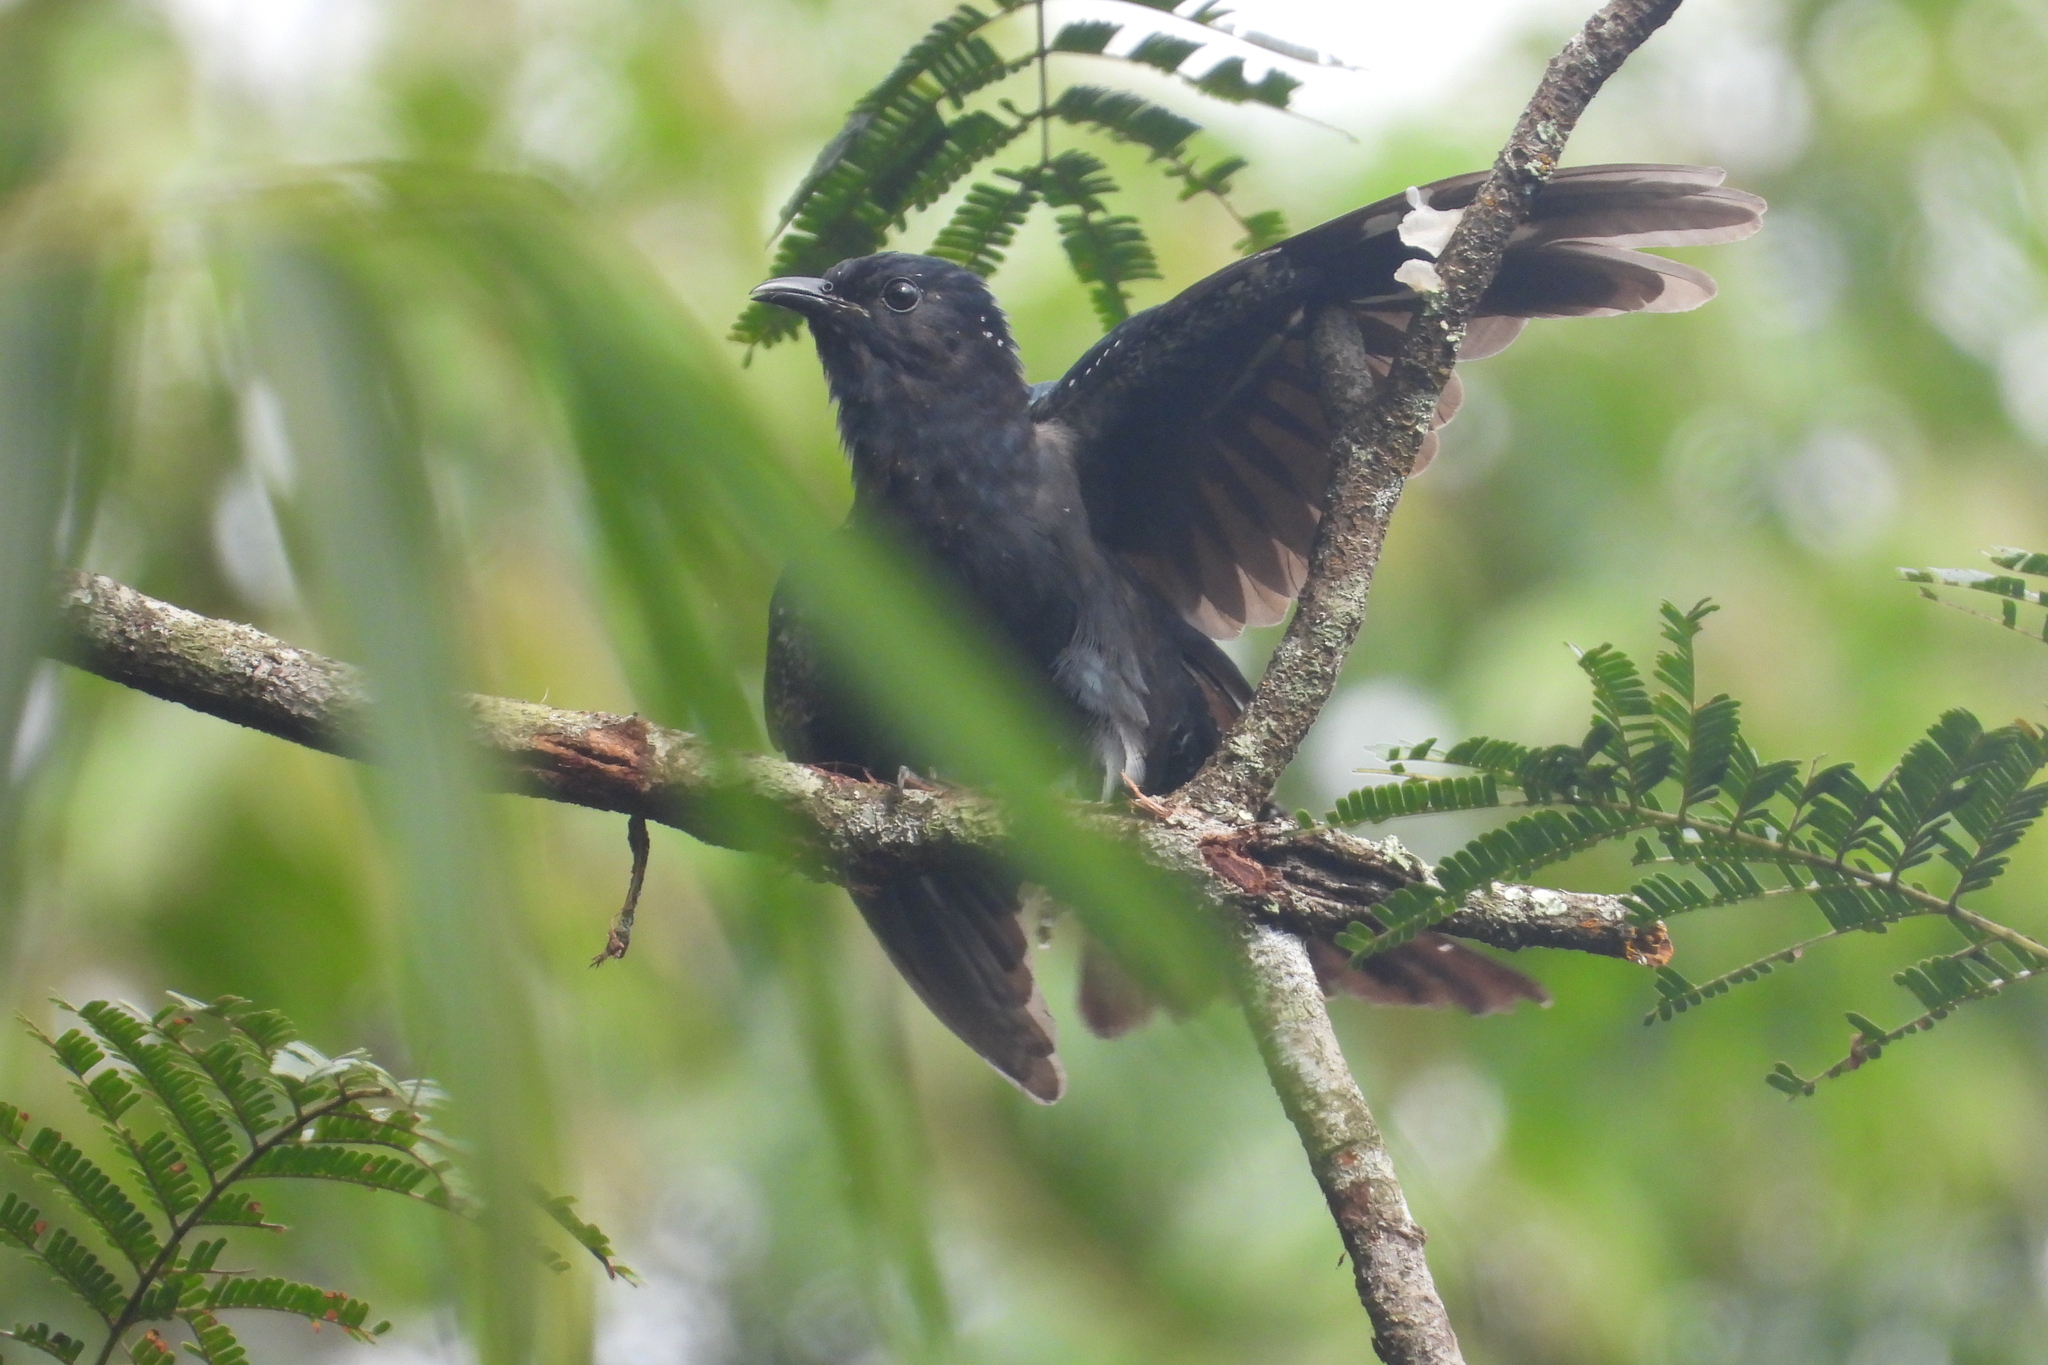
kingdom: Animalia
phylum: Chordata
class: Aves
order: Cuculiformes
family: Cuculidae
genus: Surniculus
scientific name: Surniculus lugubris
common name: Square-tailed drongo-cuckoo
